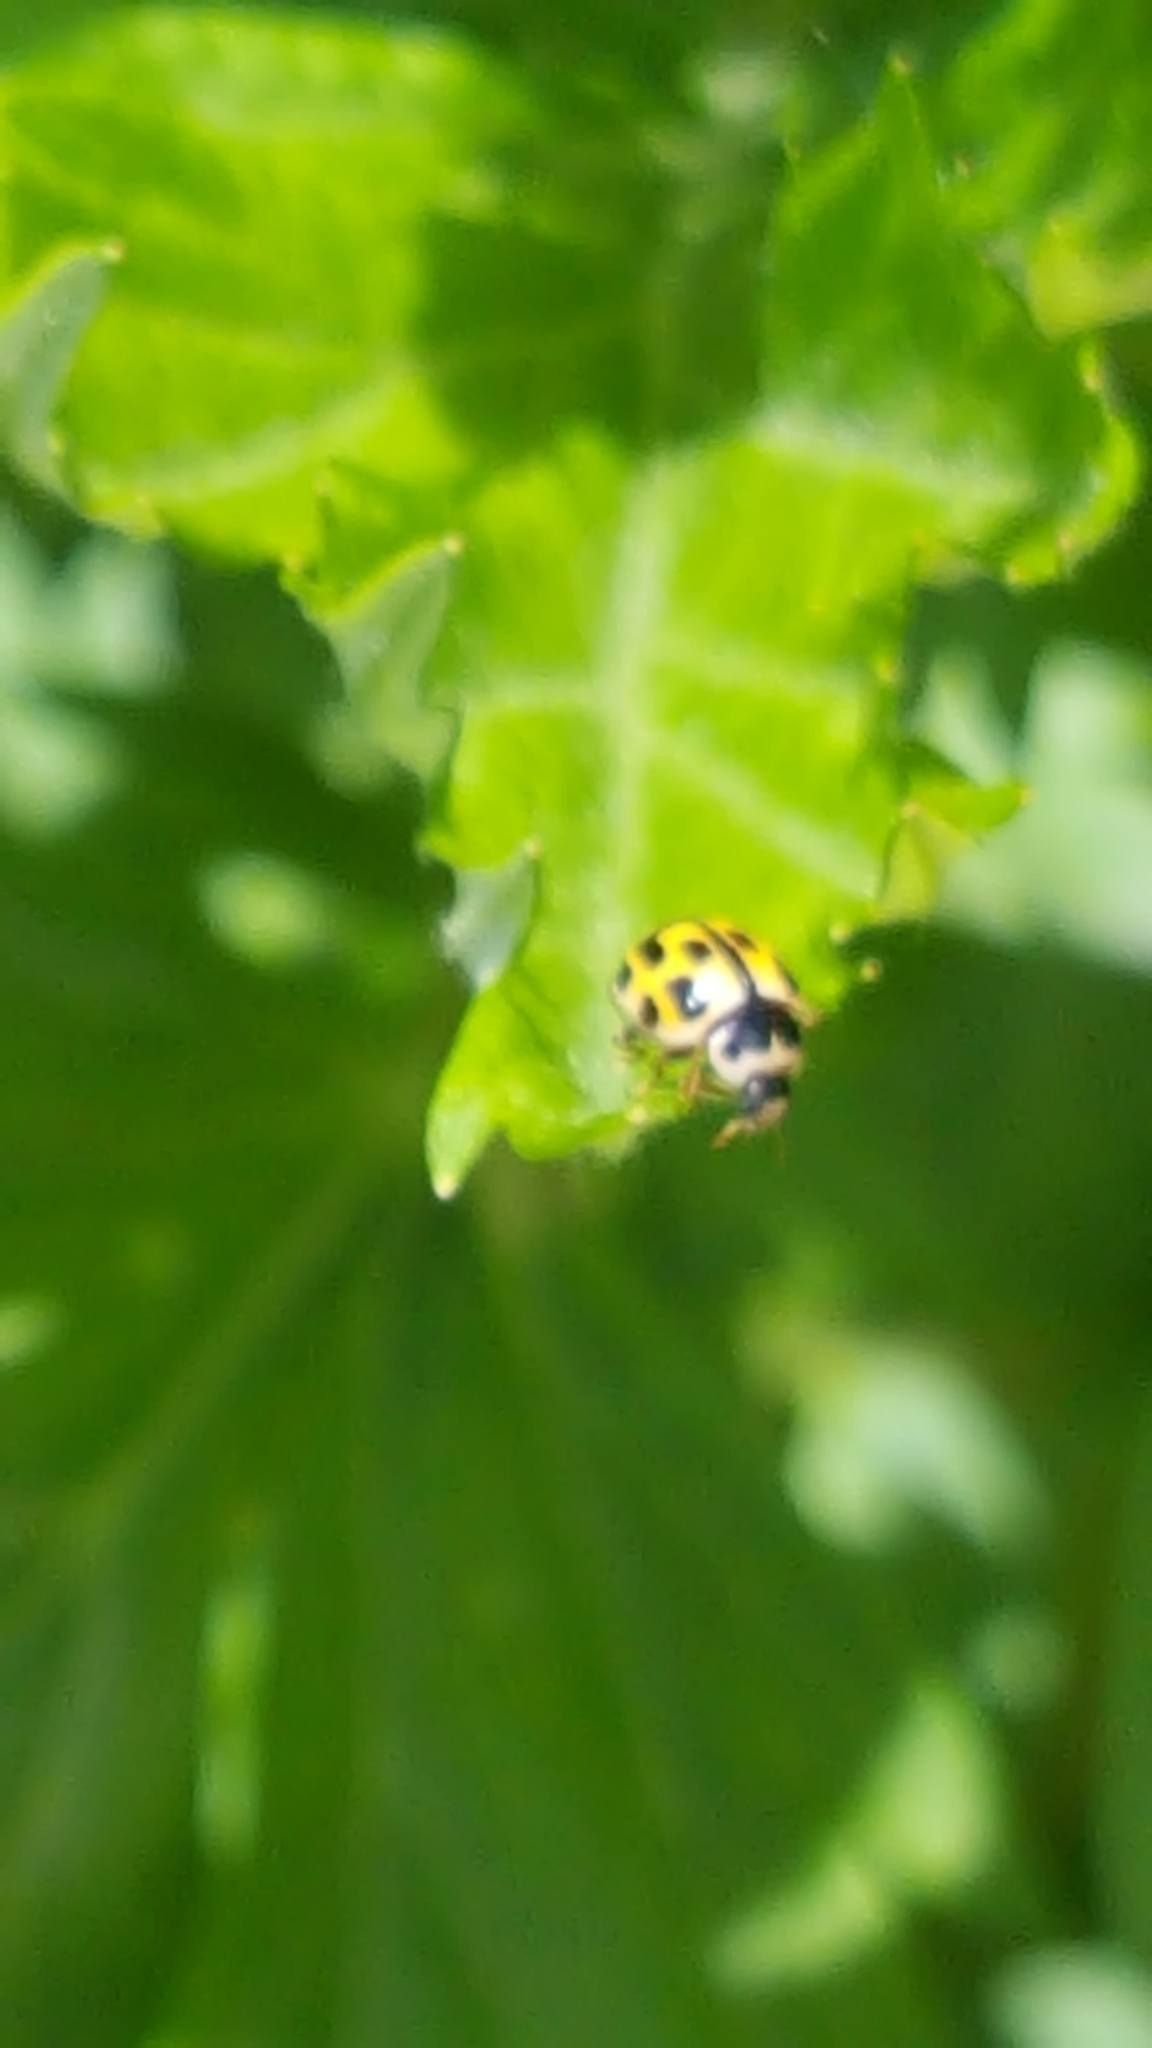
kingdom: Animalia
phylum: Arthropoda
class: Insecta
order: Coleoptera
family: Coccinellidae
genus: Propylaea
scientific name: Propylaea quatuordecimpunctata
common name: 14-spotted ladybird beetle
